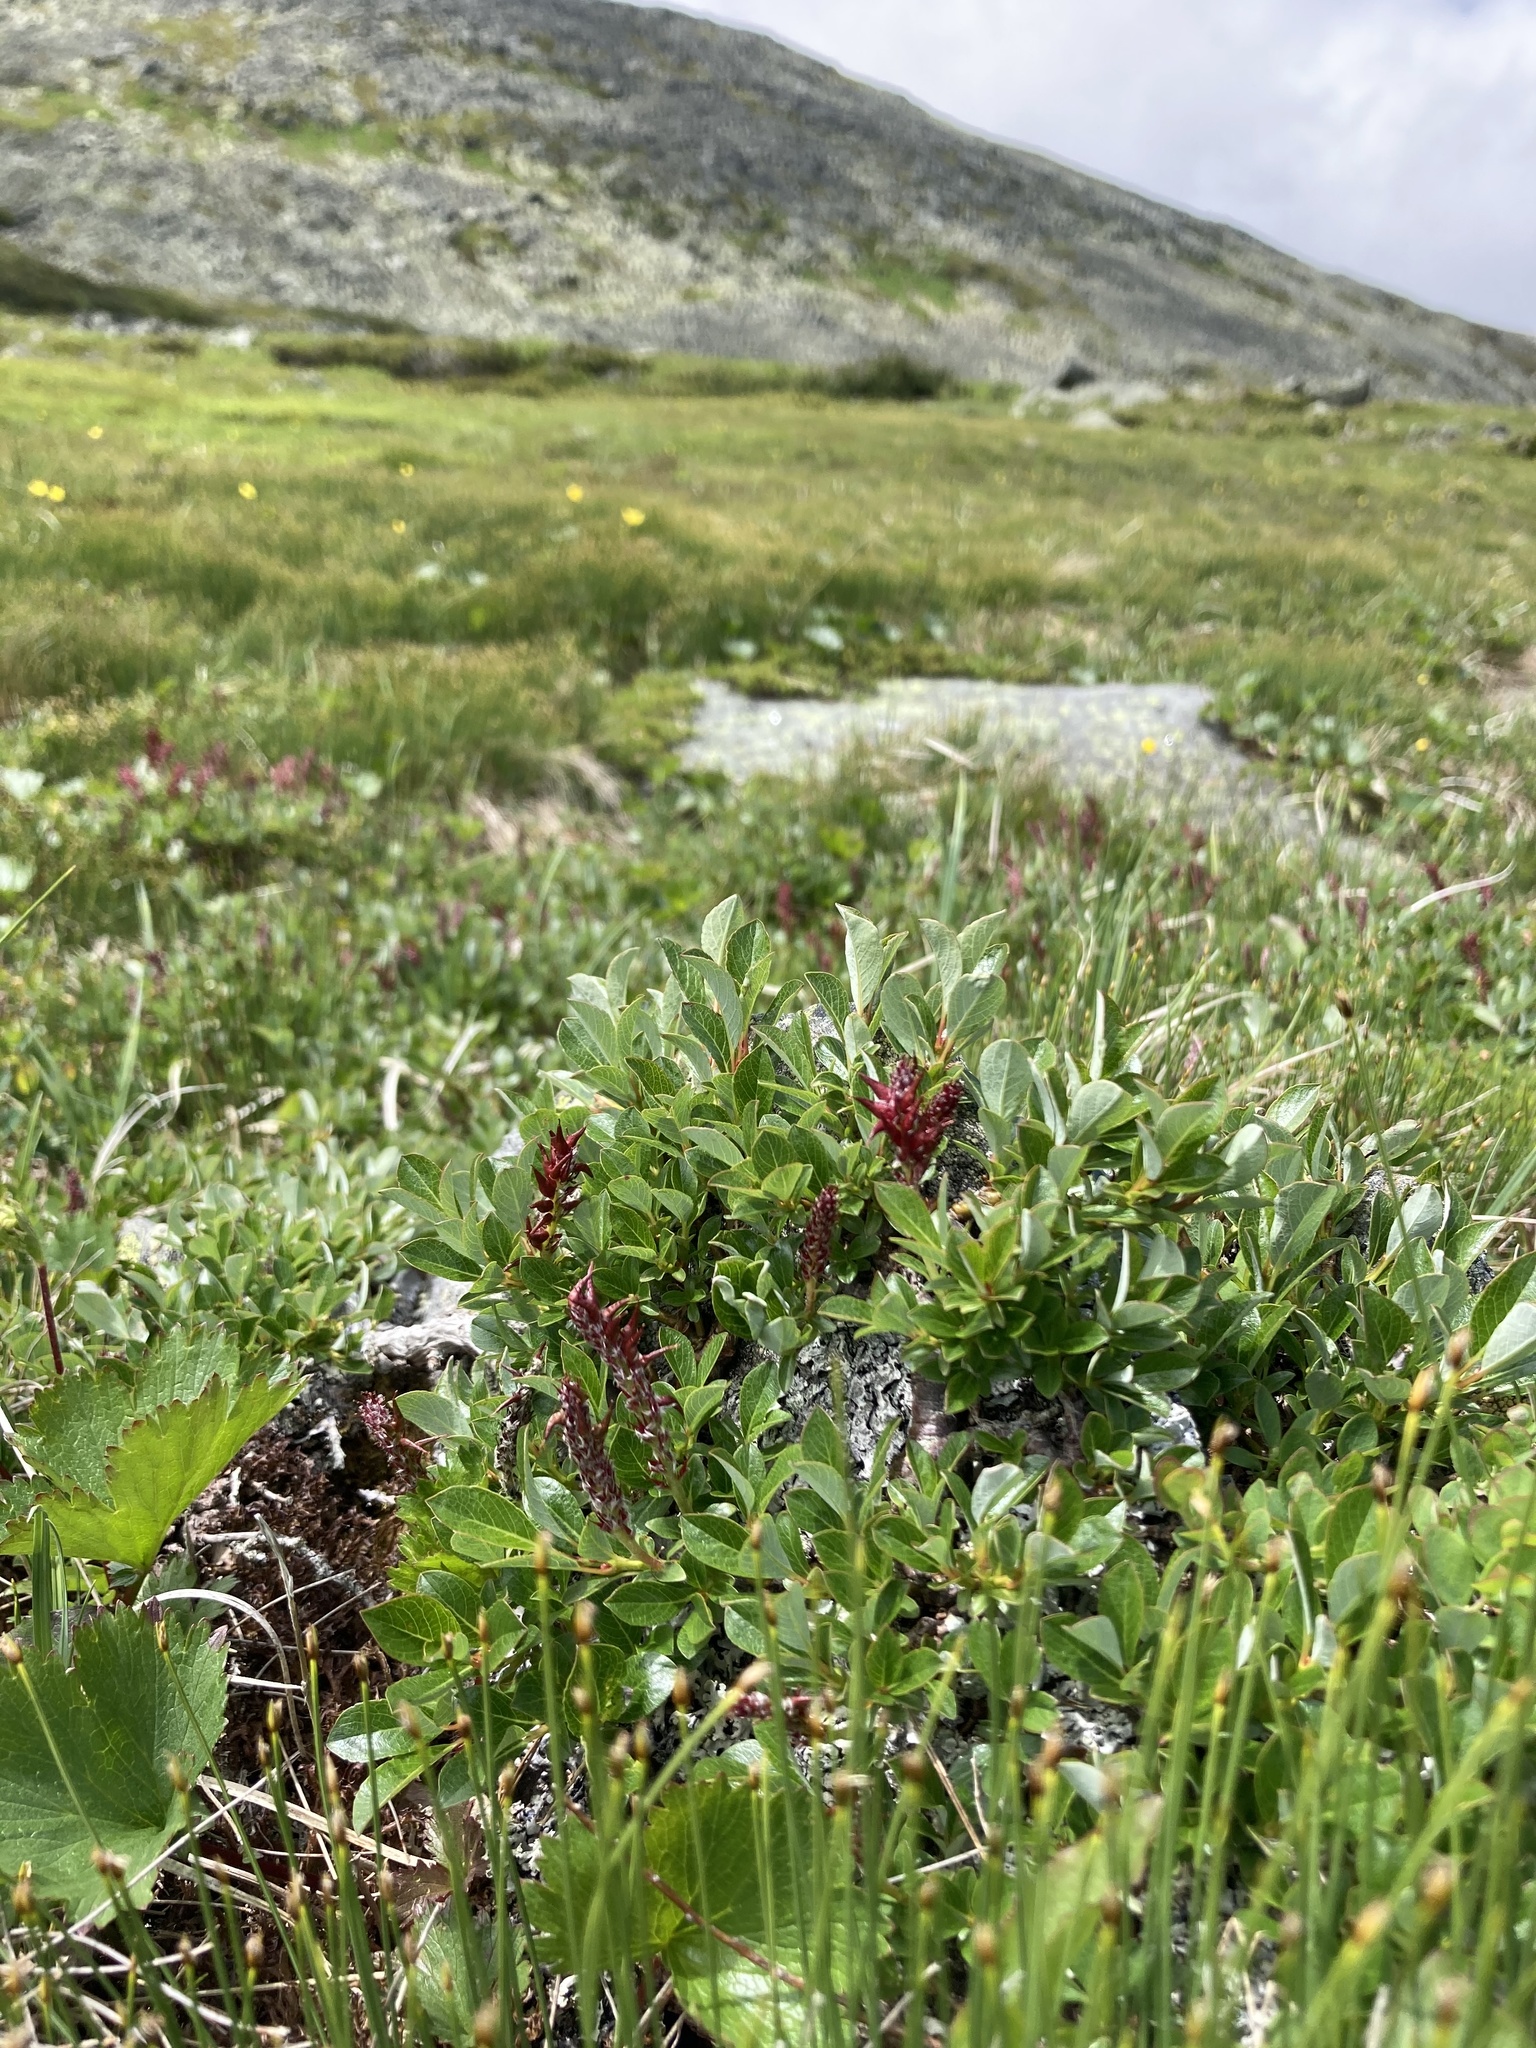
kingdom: Plantae
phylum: Tracheophyta
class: Magnoliopsida
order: Malpighiales
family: Salicaceae
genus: Salix
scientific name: Salix uva-ursi
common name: Bearberry willow
